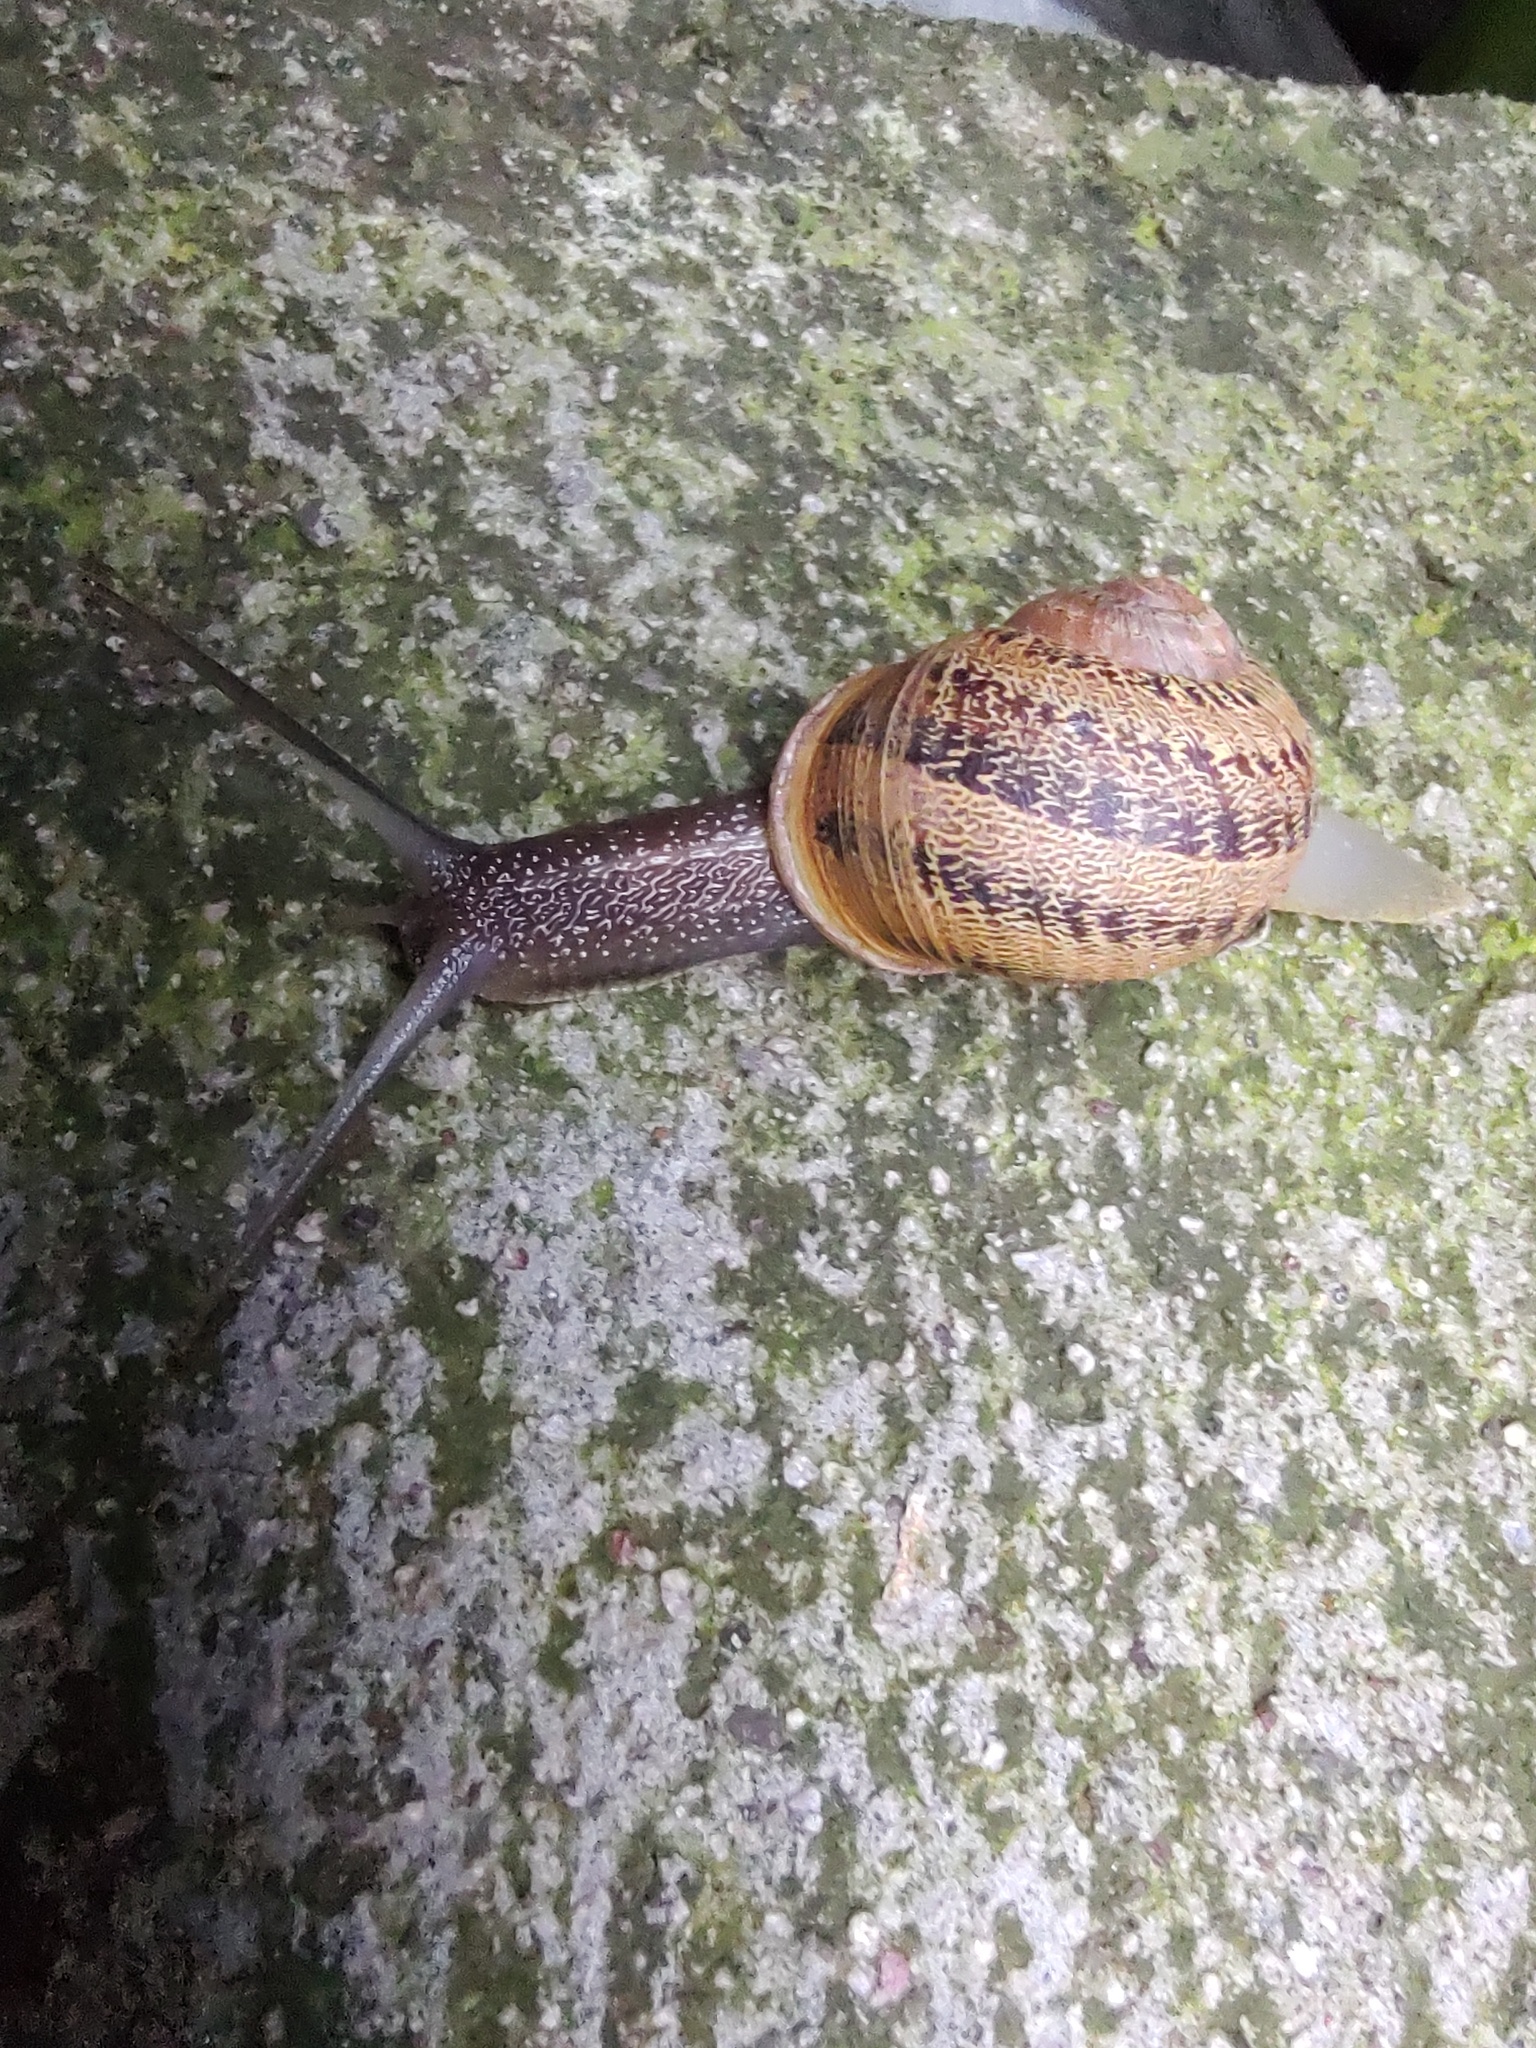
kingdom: Animalia
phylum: Mollusca
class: Gastropoda
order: Stylommatophora
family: Helicidae
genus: Cornu
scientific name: Cornu aspersum
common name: Brown garden snail
